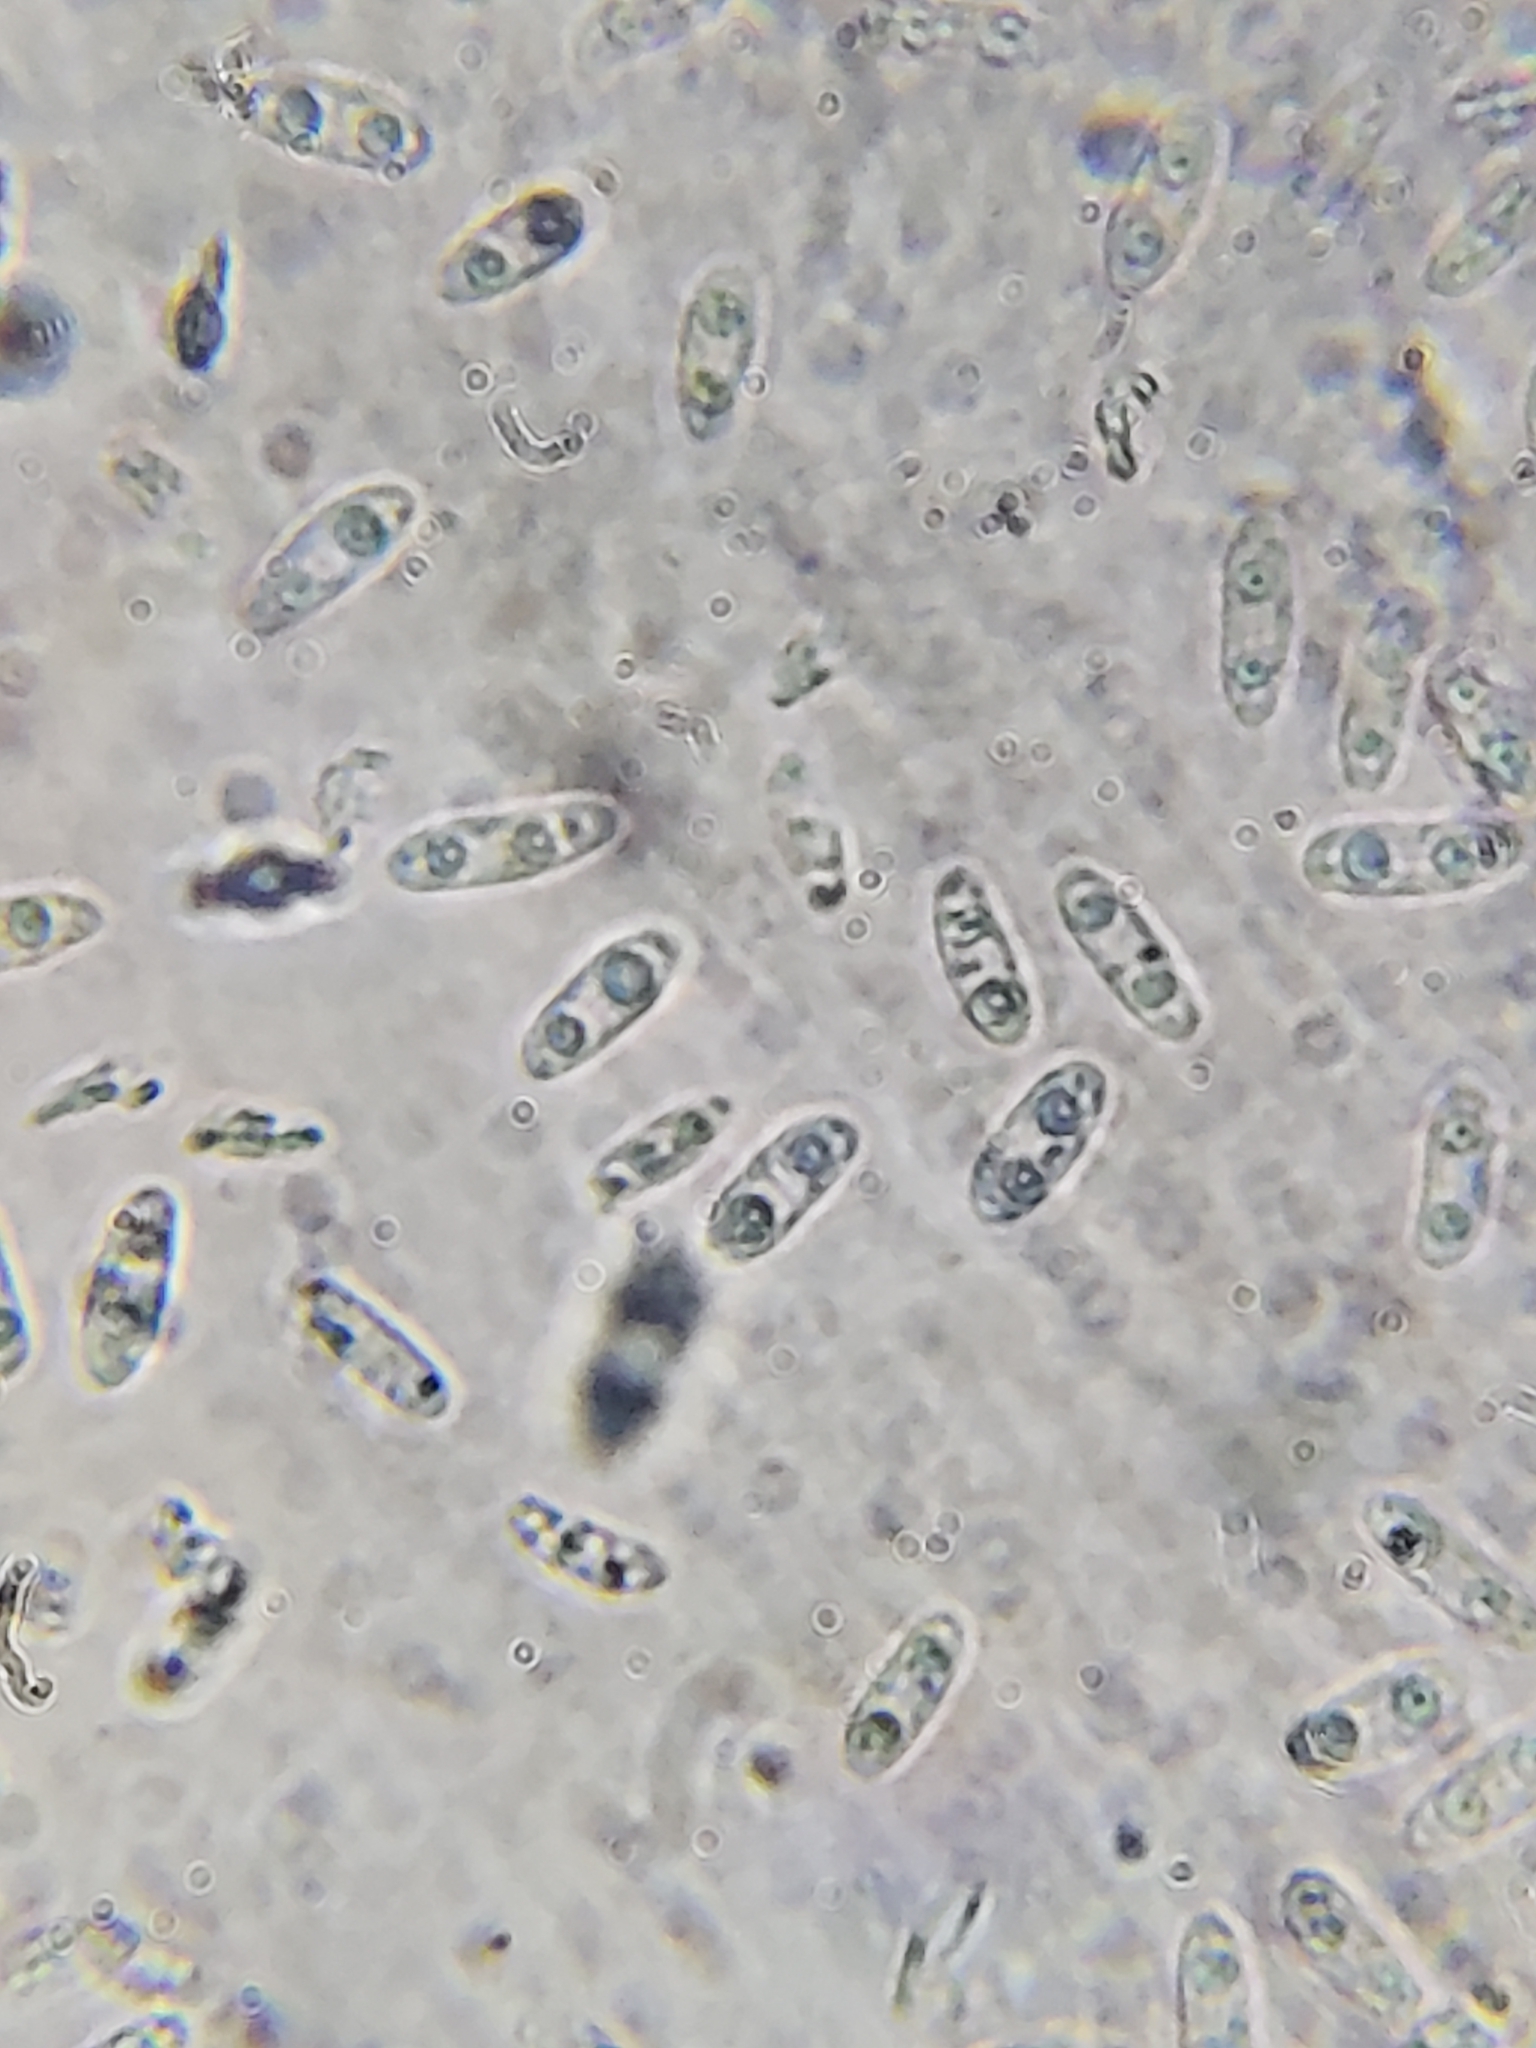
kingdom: Fungi
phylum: Ascomycota
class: Leotiomycetes
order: Helotiales
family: Cenangiaceae
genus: Chlorencoelia
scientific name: Chlorencoelia torta
